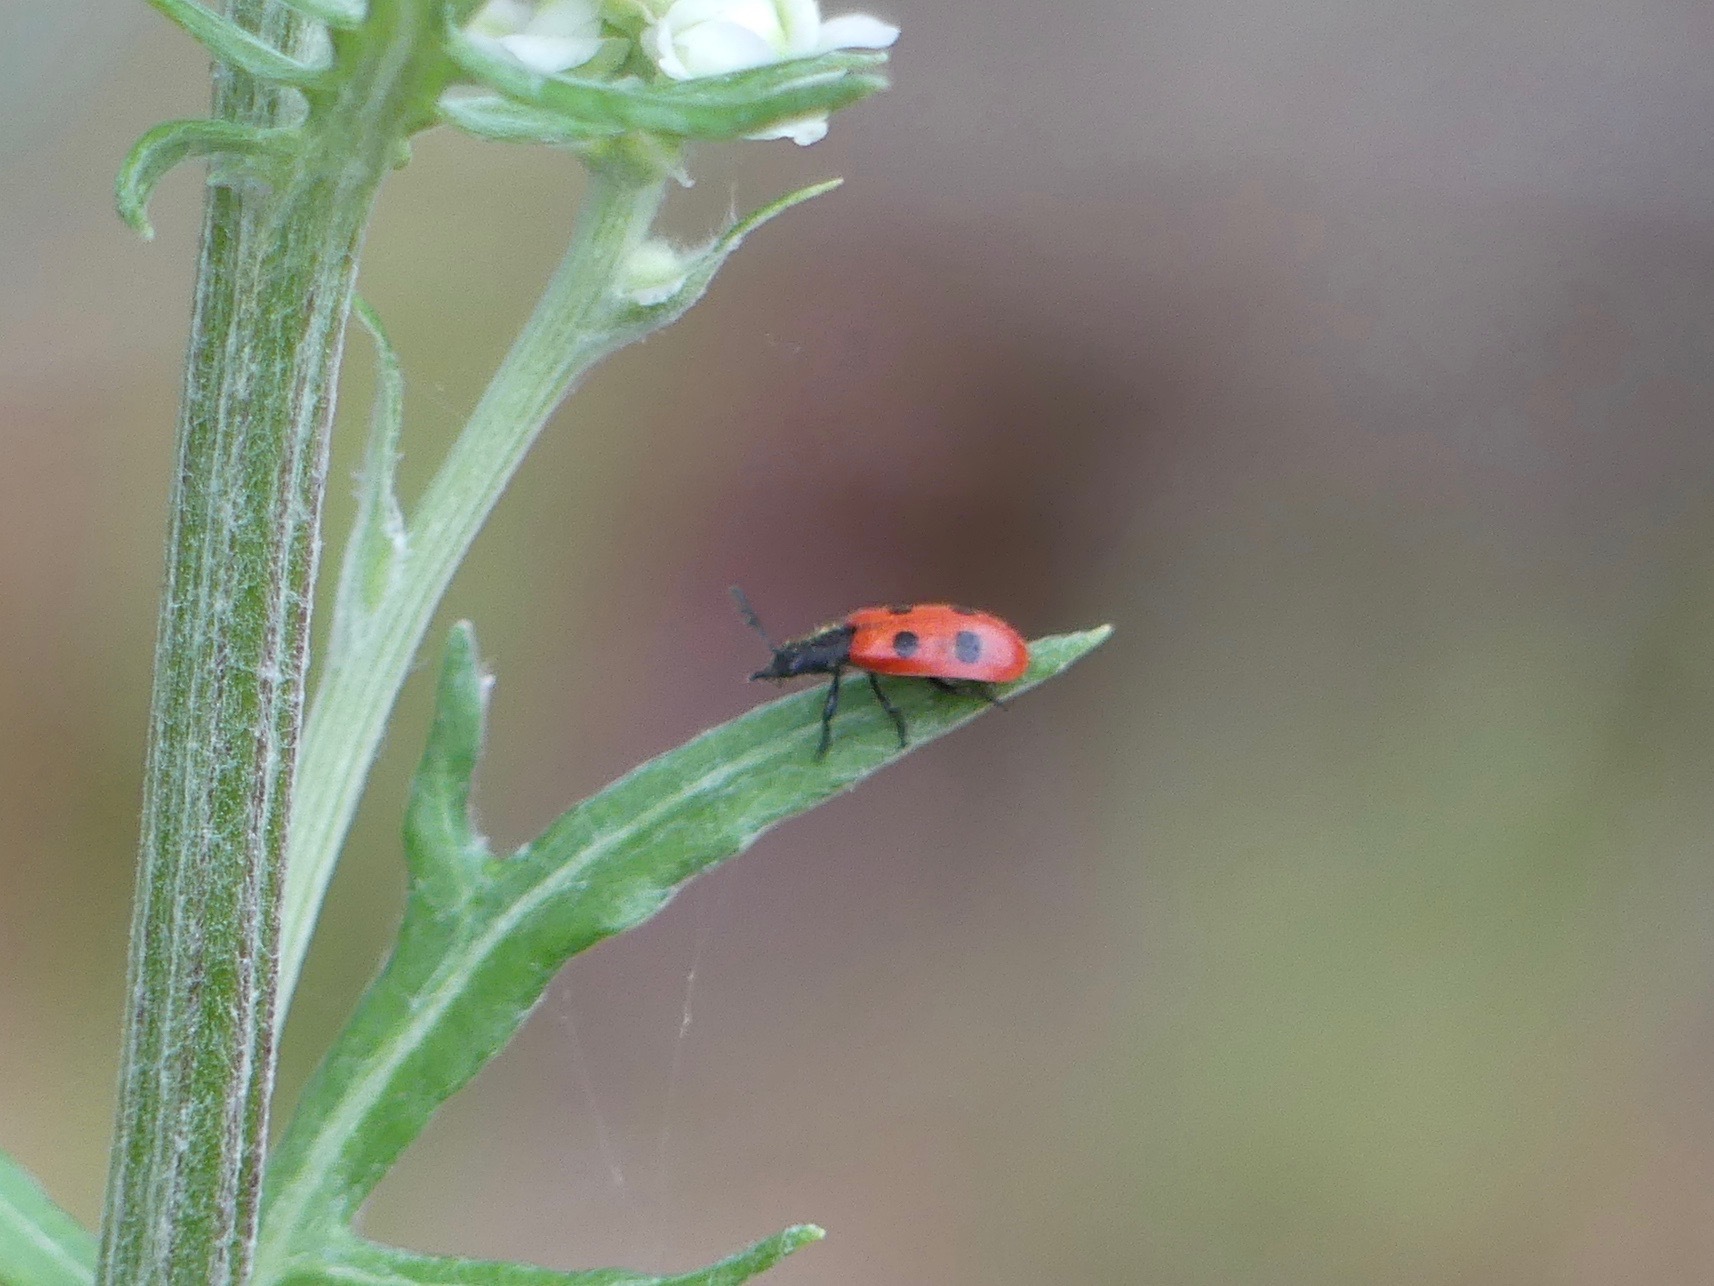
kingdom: Animalia
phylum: Arthropoda
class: Insecta
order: Coleoptera
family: Cleridae
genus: Pelonides
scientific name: Pelonides quadripunctatus
